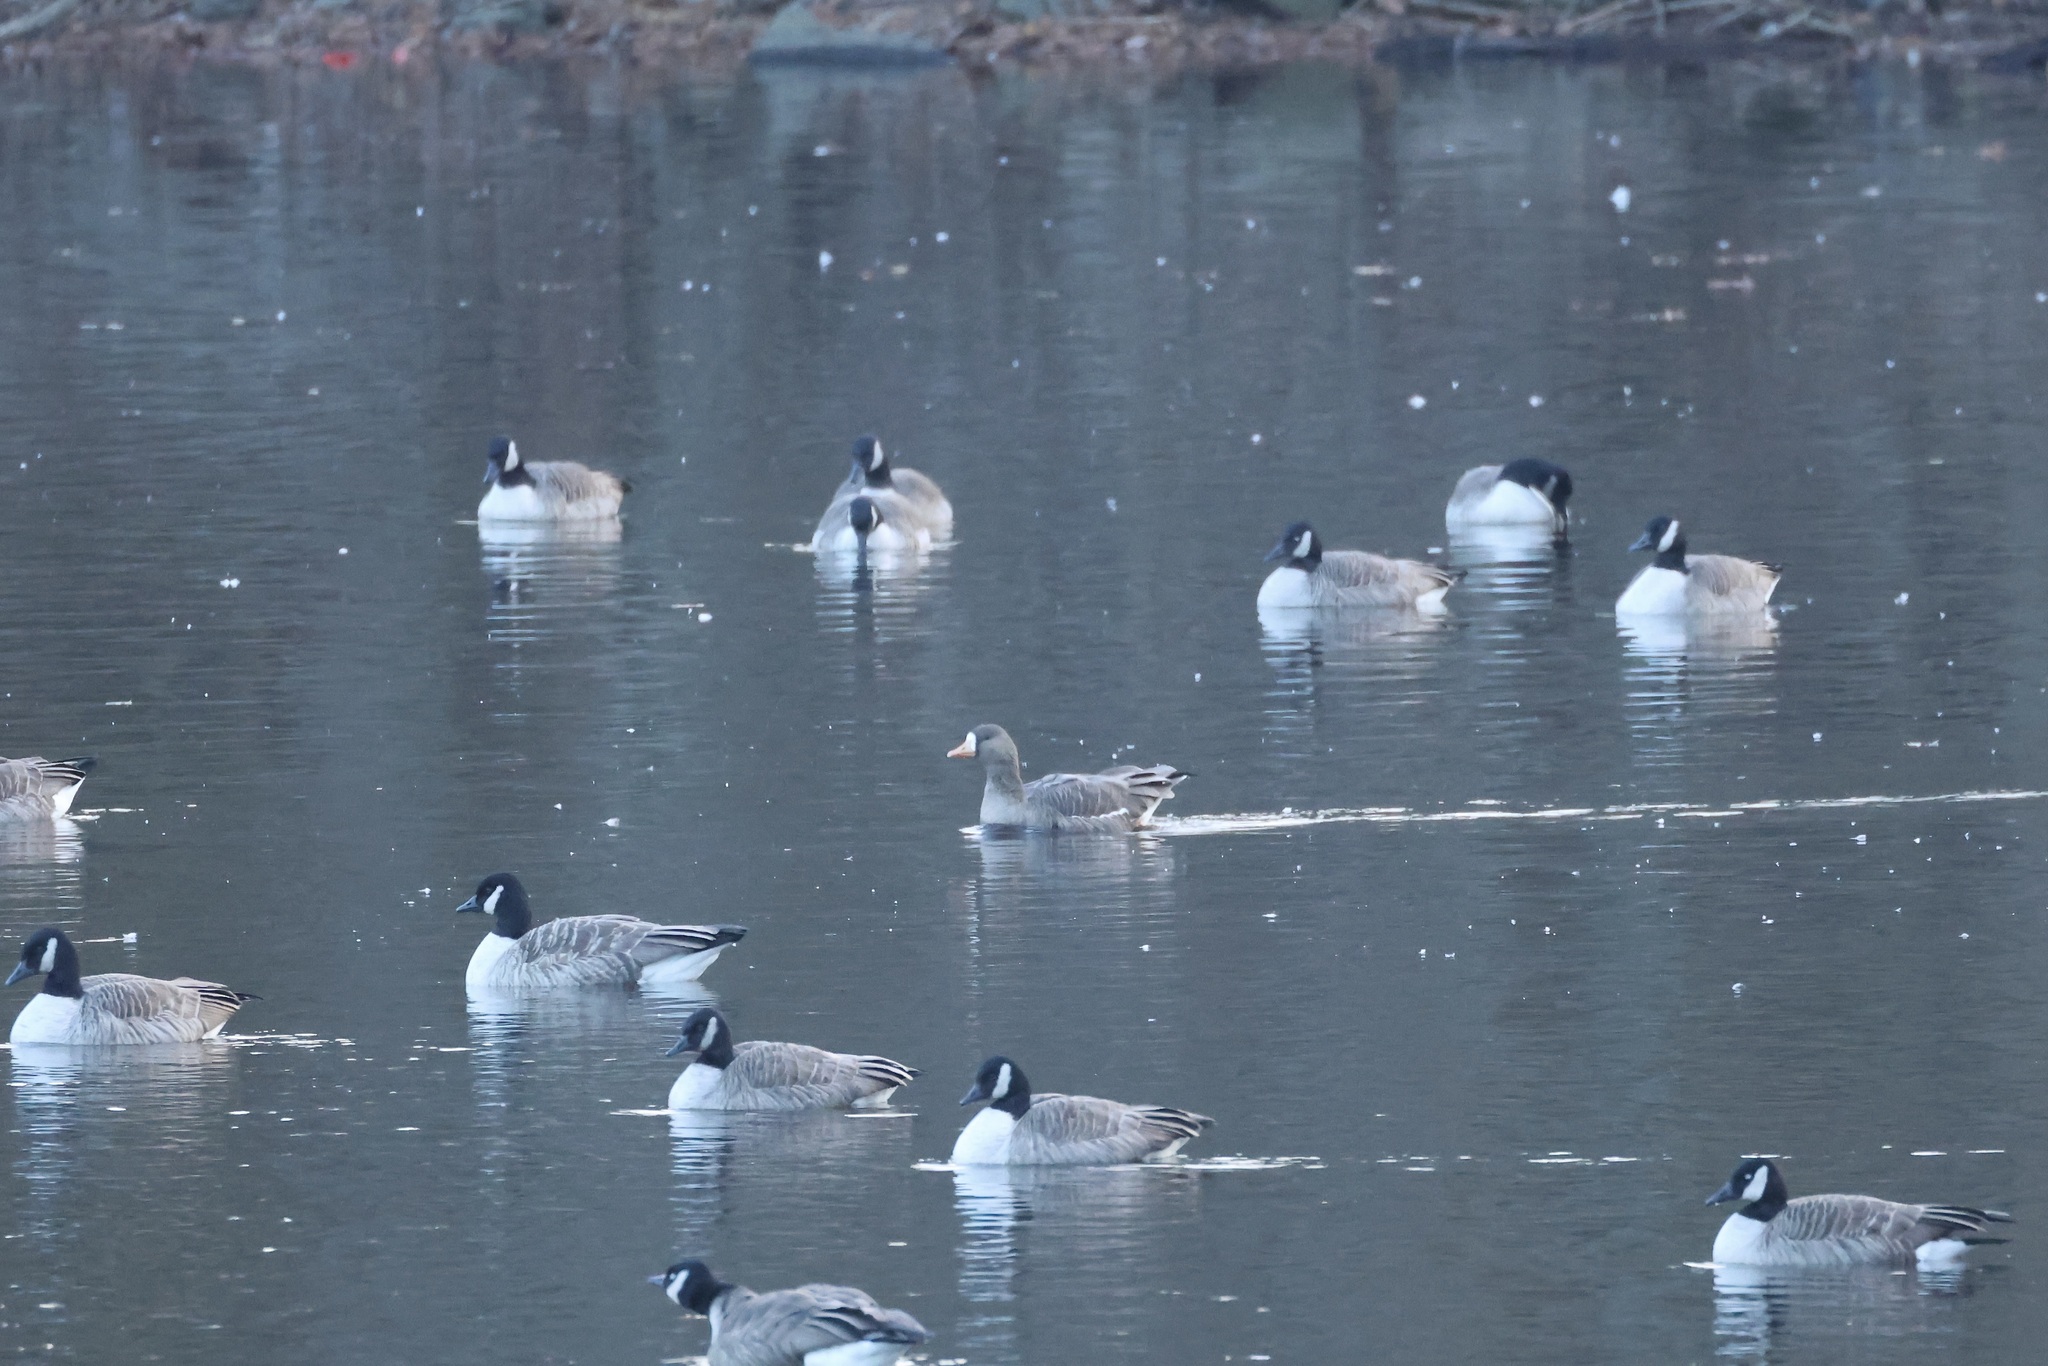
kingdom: Animalia
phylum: Chordata
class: Aves
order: Anseriformes
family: Anatidae
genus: Anser
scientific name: Anser albifrons
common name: Greater white-fronted goose
